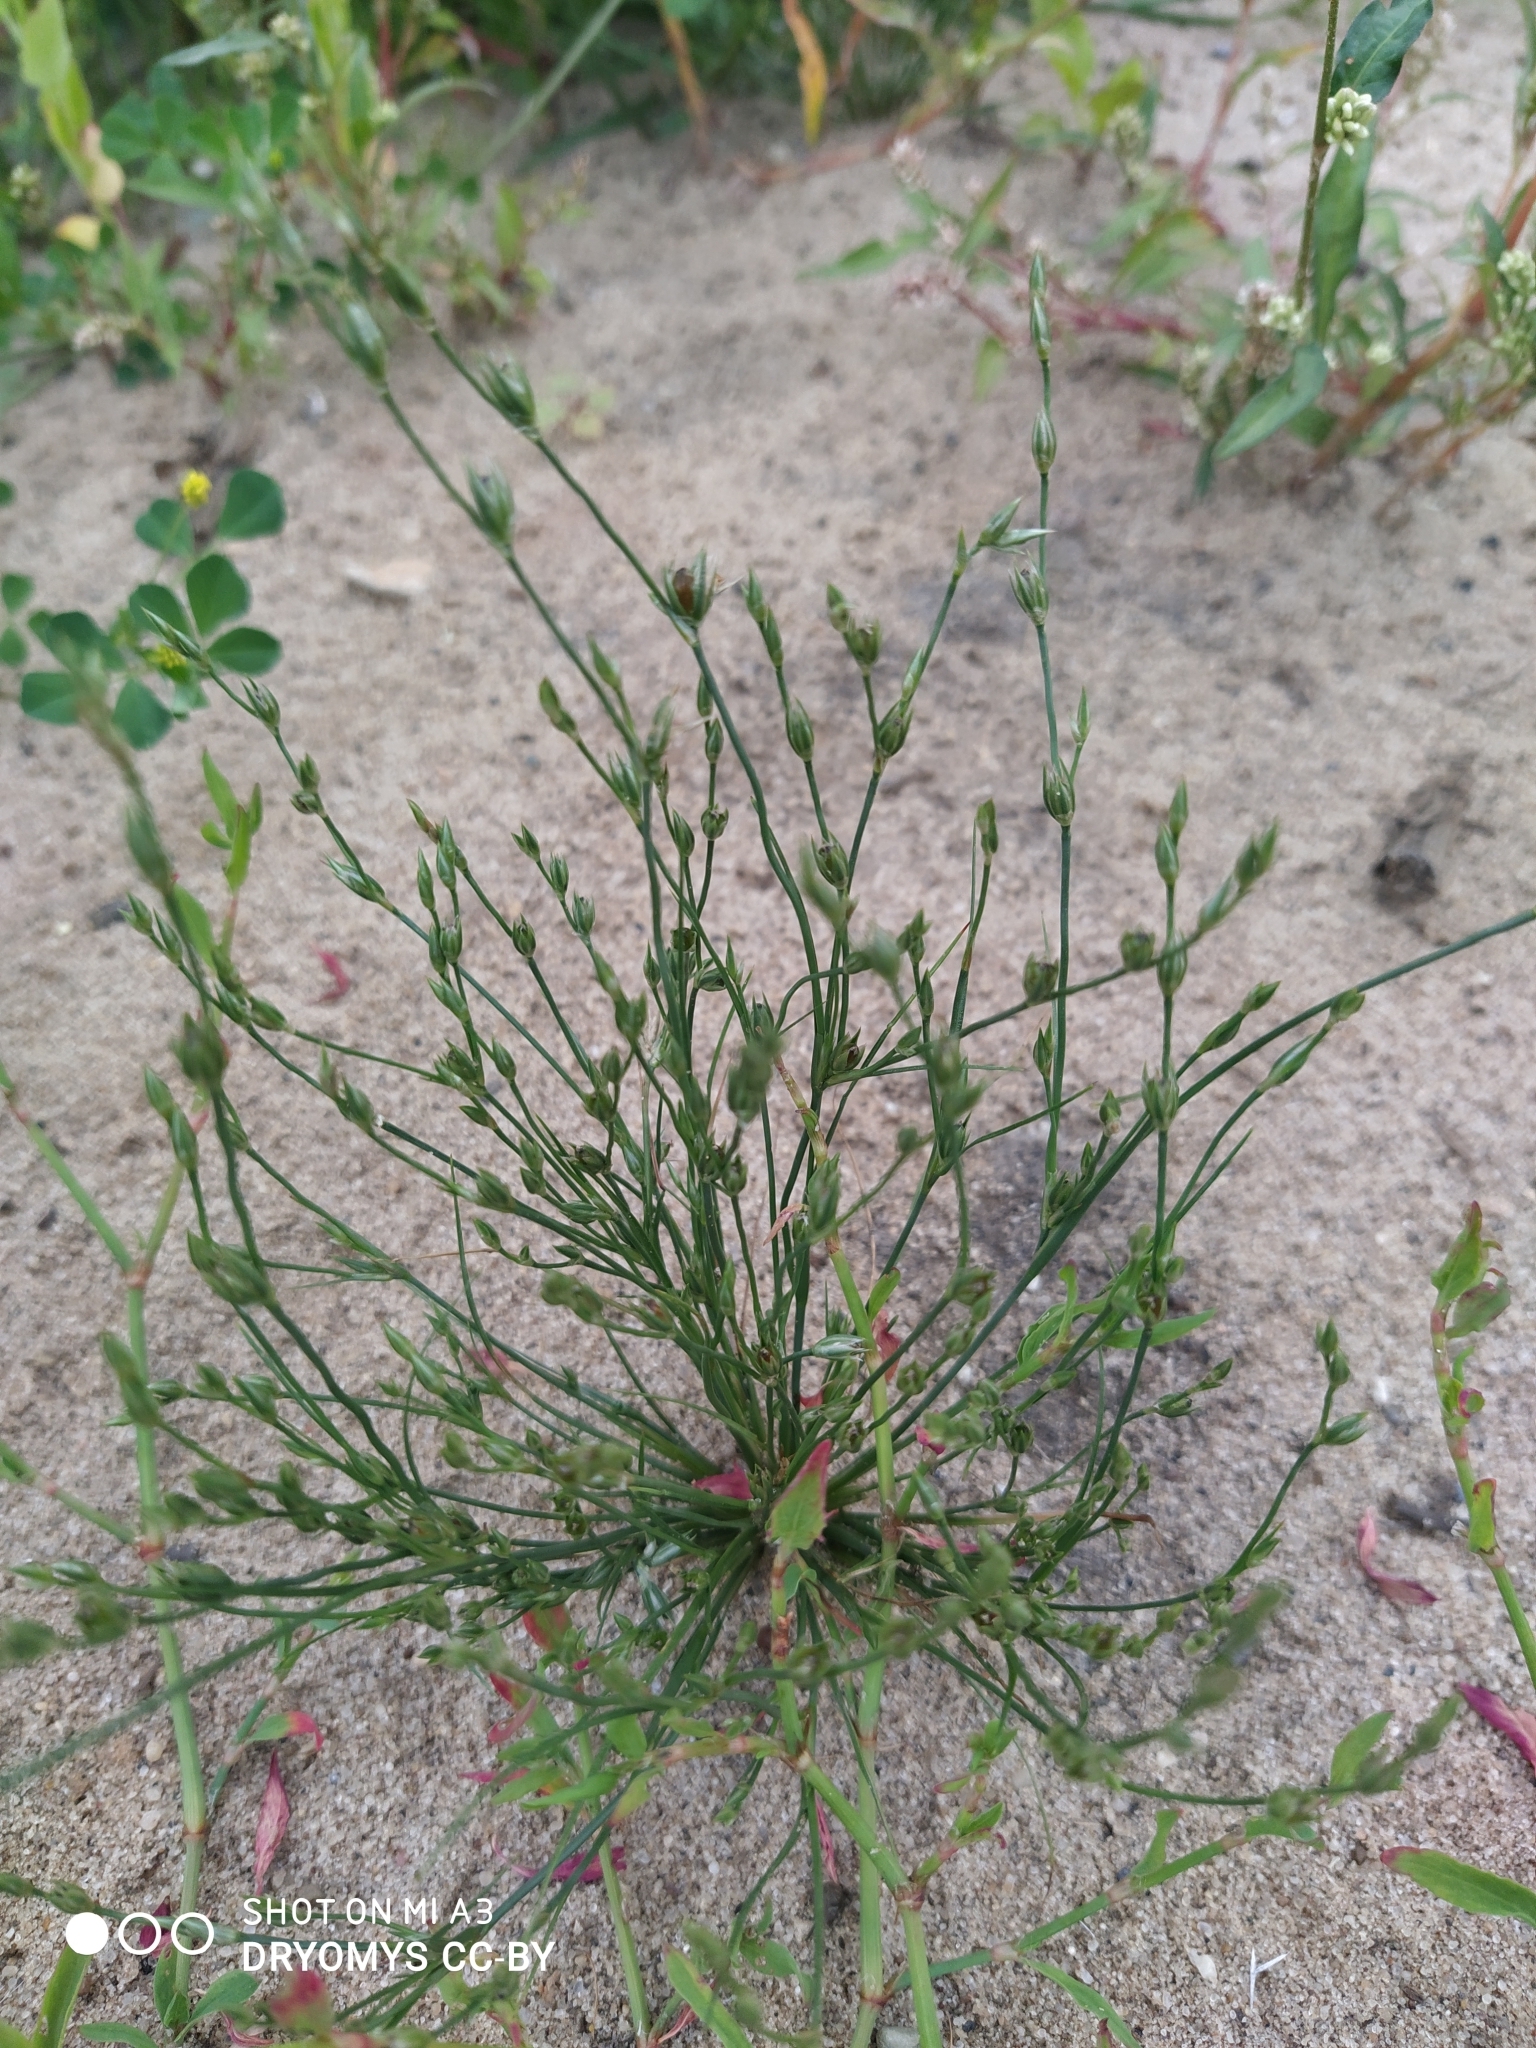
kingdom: Plantae
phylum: Tracheophyta
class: Liliopsida
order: Poales
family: Juncaceae
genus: Juncus
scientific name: Juncus bufonius
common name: Toad rush
